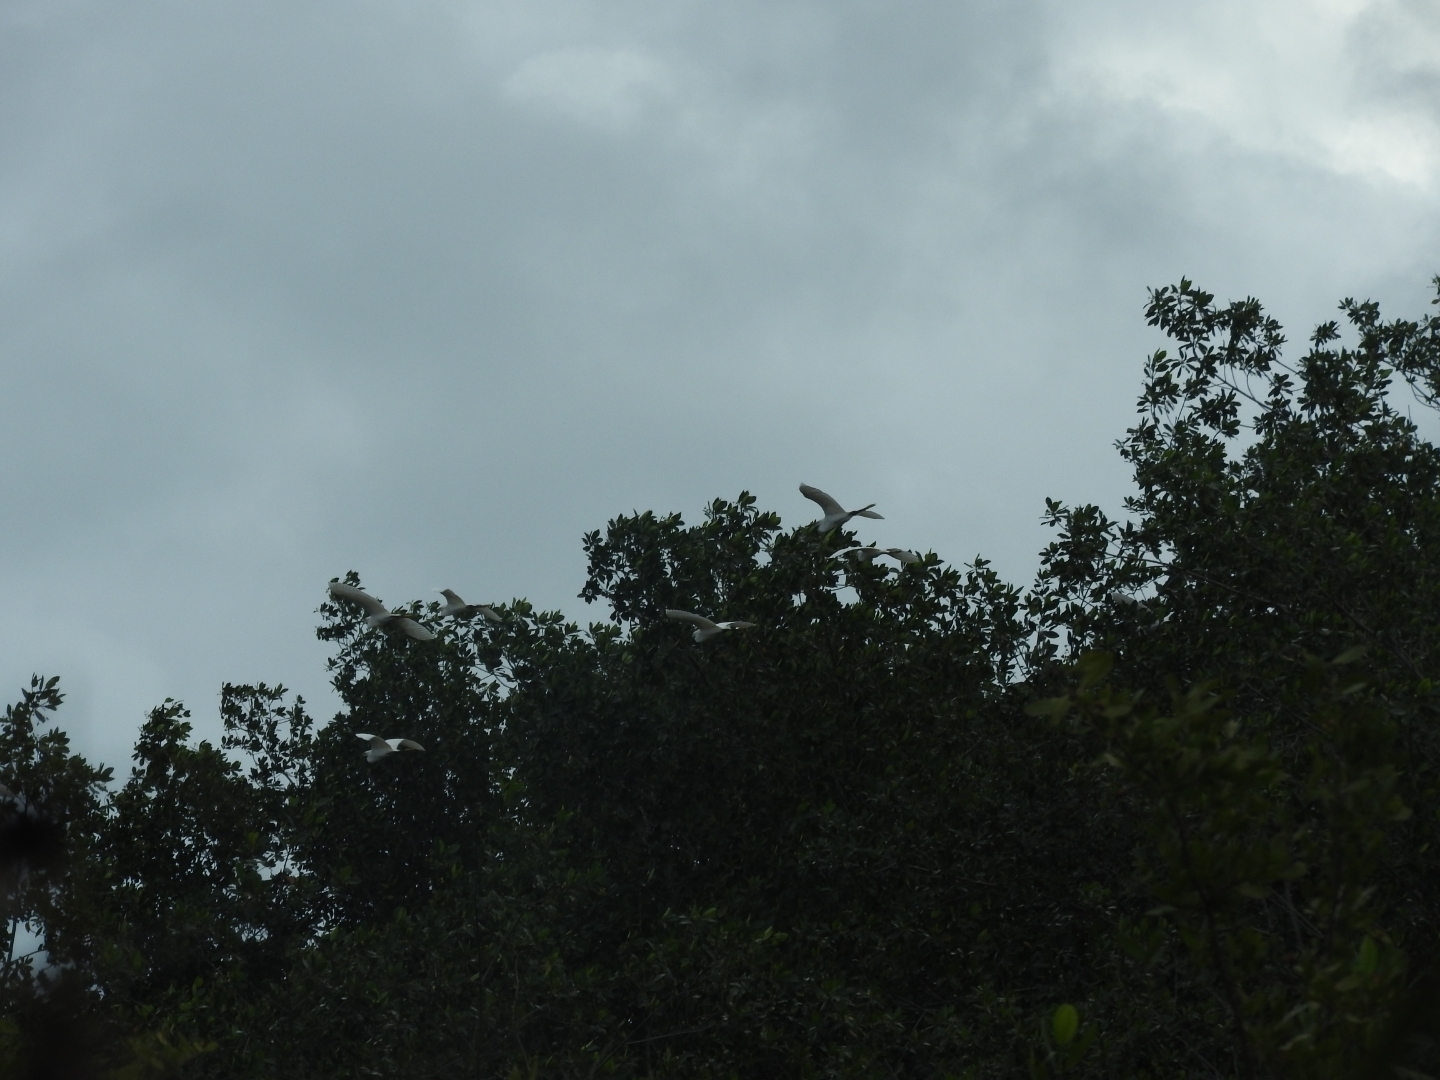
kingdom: Animalia
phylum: Chordata
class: Aves
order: Pelecaniformes
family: Ardeidae
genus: Bubulcus
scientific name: Bubulcus ibis
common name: Cattle egret
